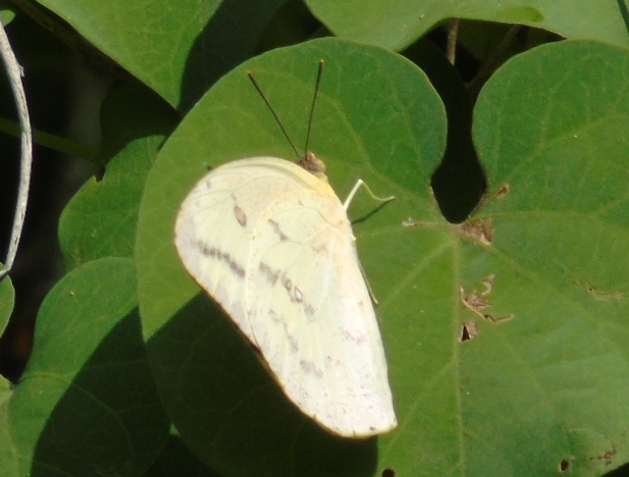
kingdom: Animalia
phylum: Arthropoda
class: Insecta
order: Lepidoptera
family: Pieridae
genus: Phoebis
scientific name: Phoebis agarithe
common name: Large orange sulphur
